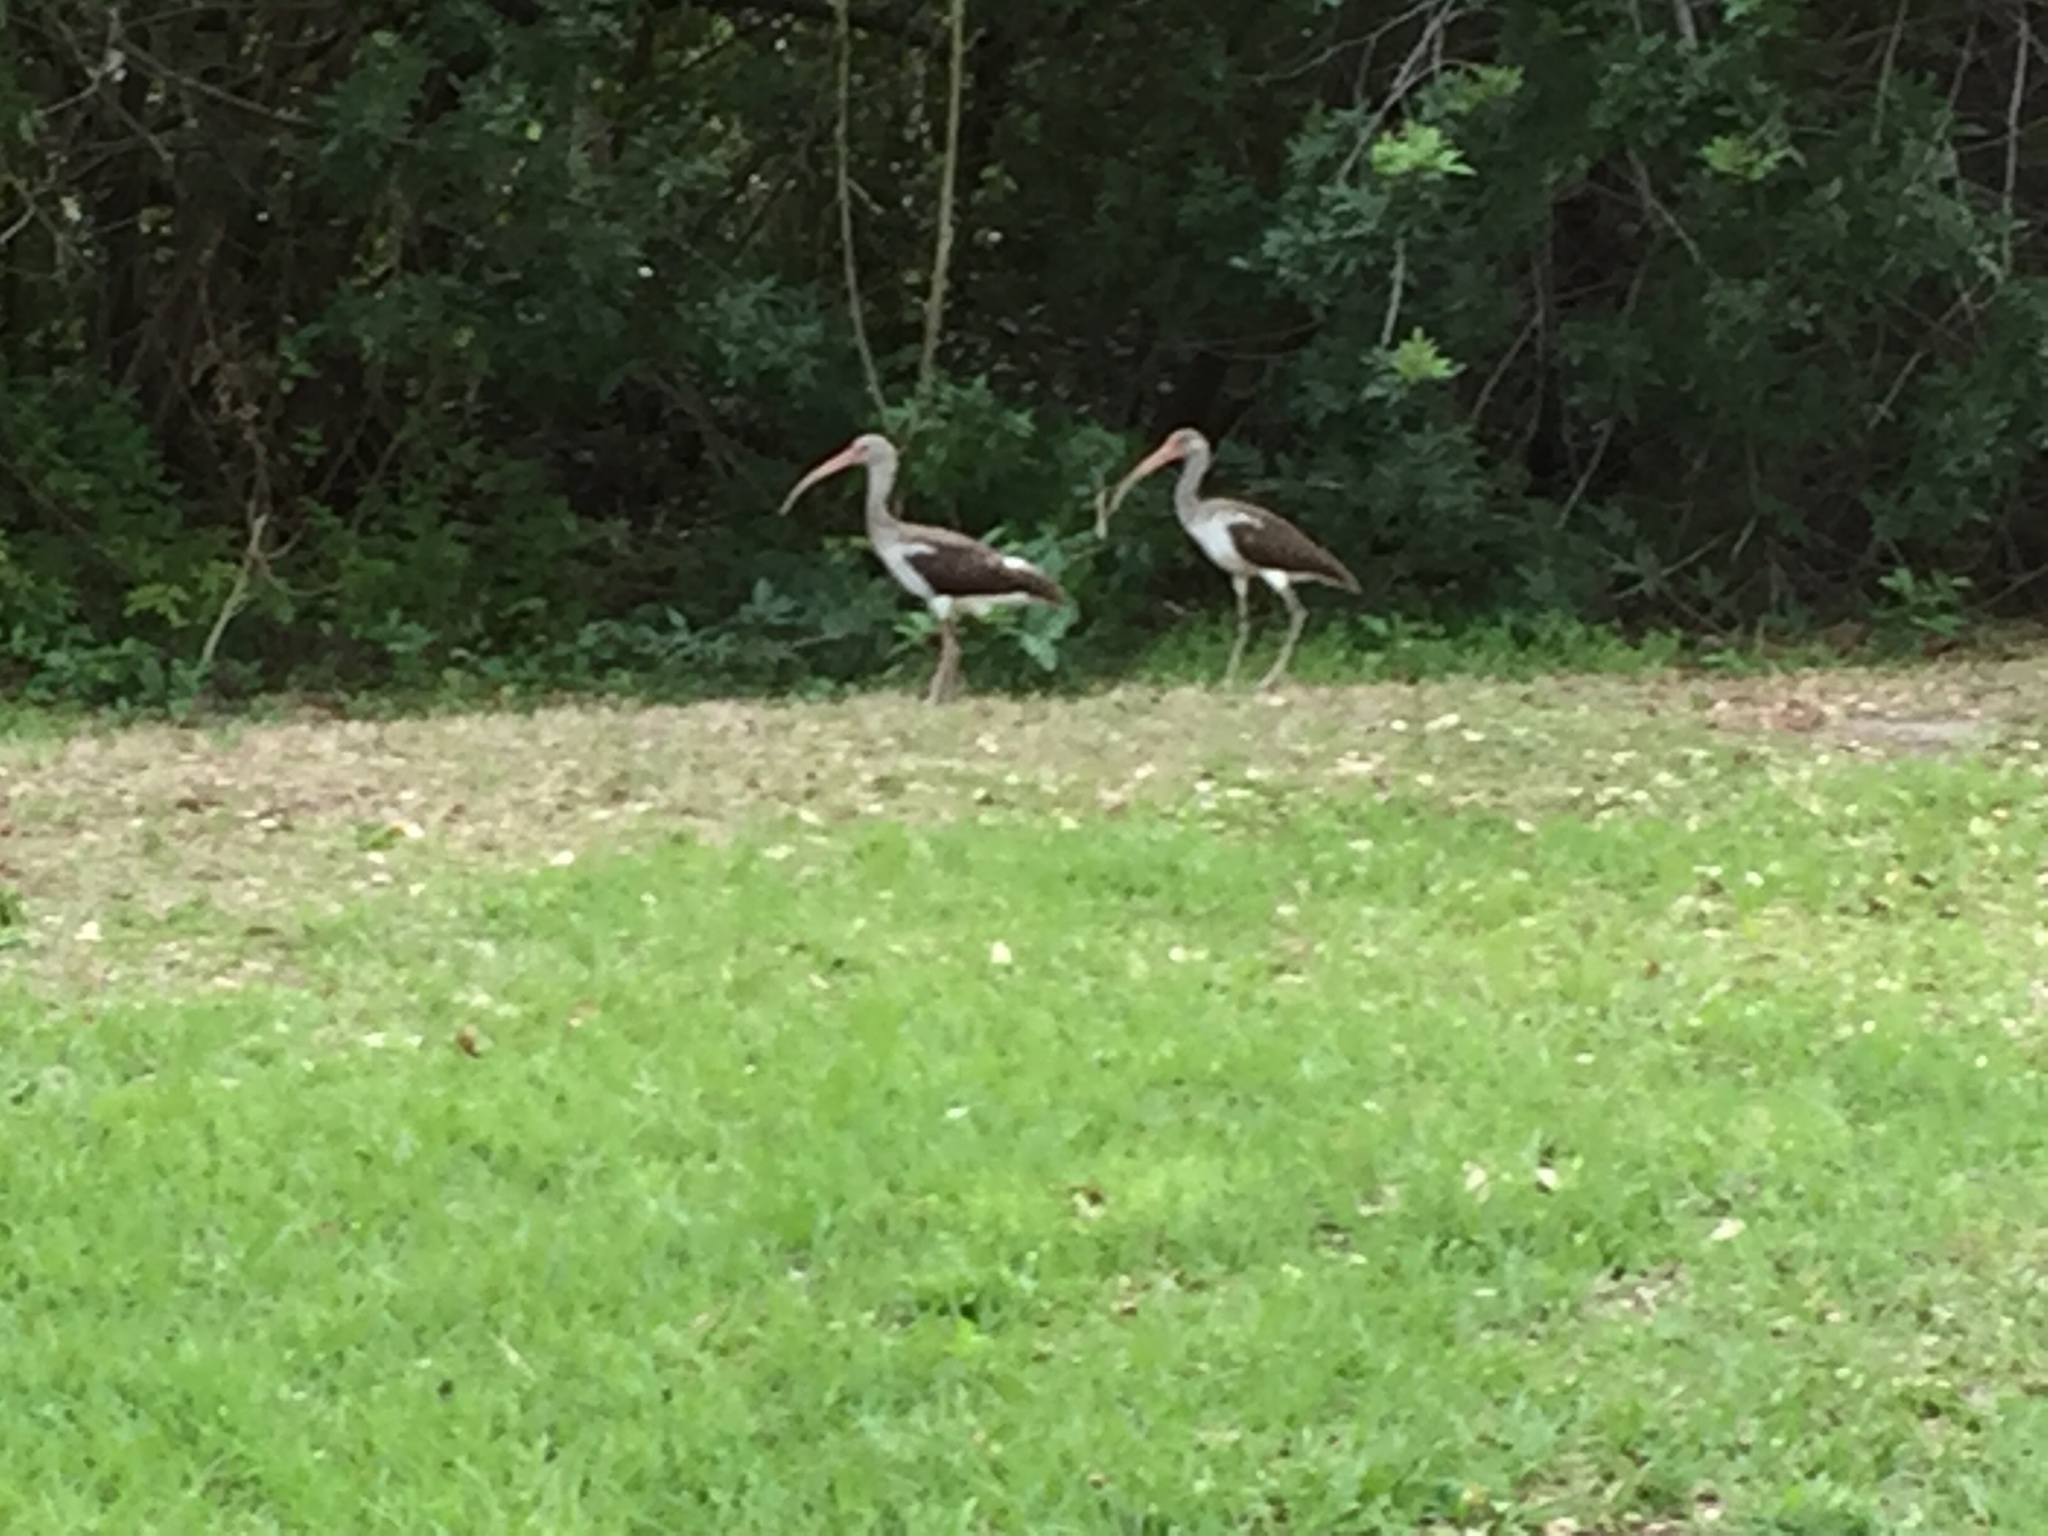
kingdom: Animalia
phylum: Chordata
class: Aves
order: Pelecaniformes
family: Threskiornithidae
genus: Eudocimus
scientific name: Eudocimus albus
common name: White ibis
